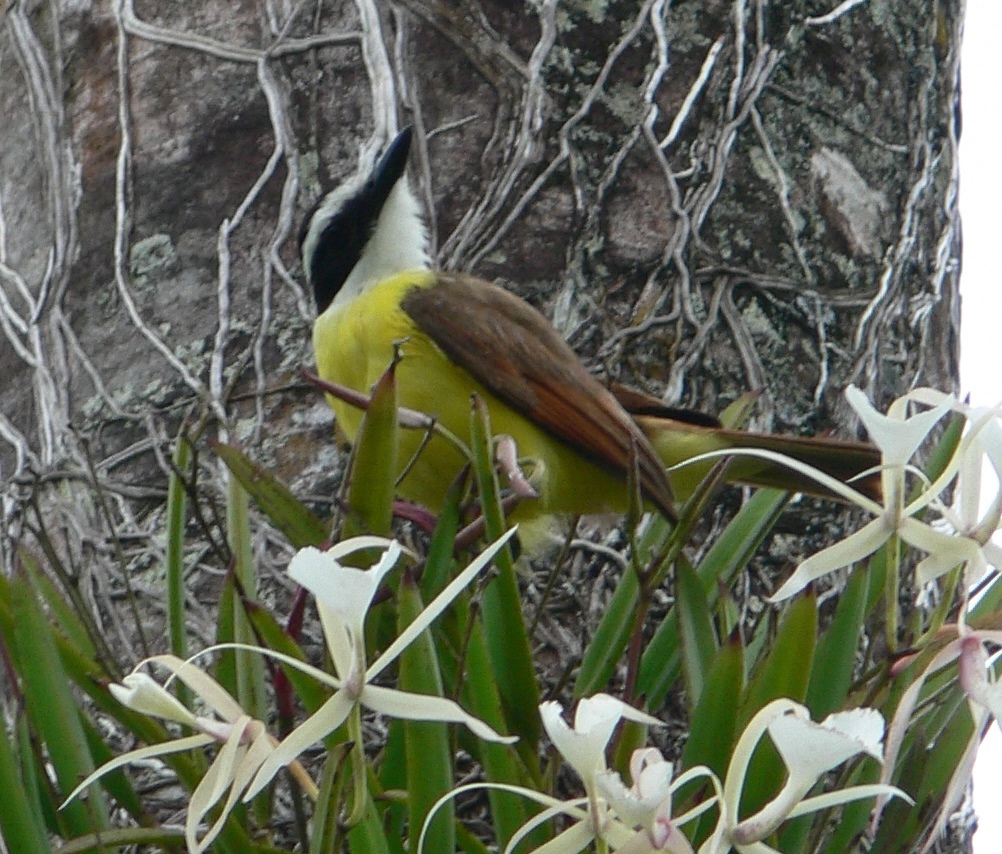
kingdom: Animalia
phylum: Chordata
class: Aves
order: Passeriformes
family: Tyrannidae
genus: Pitangus
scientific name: Pitangus sulphuratus
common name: Great kiskadee
